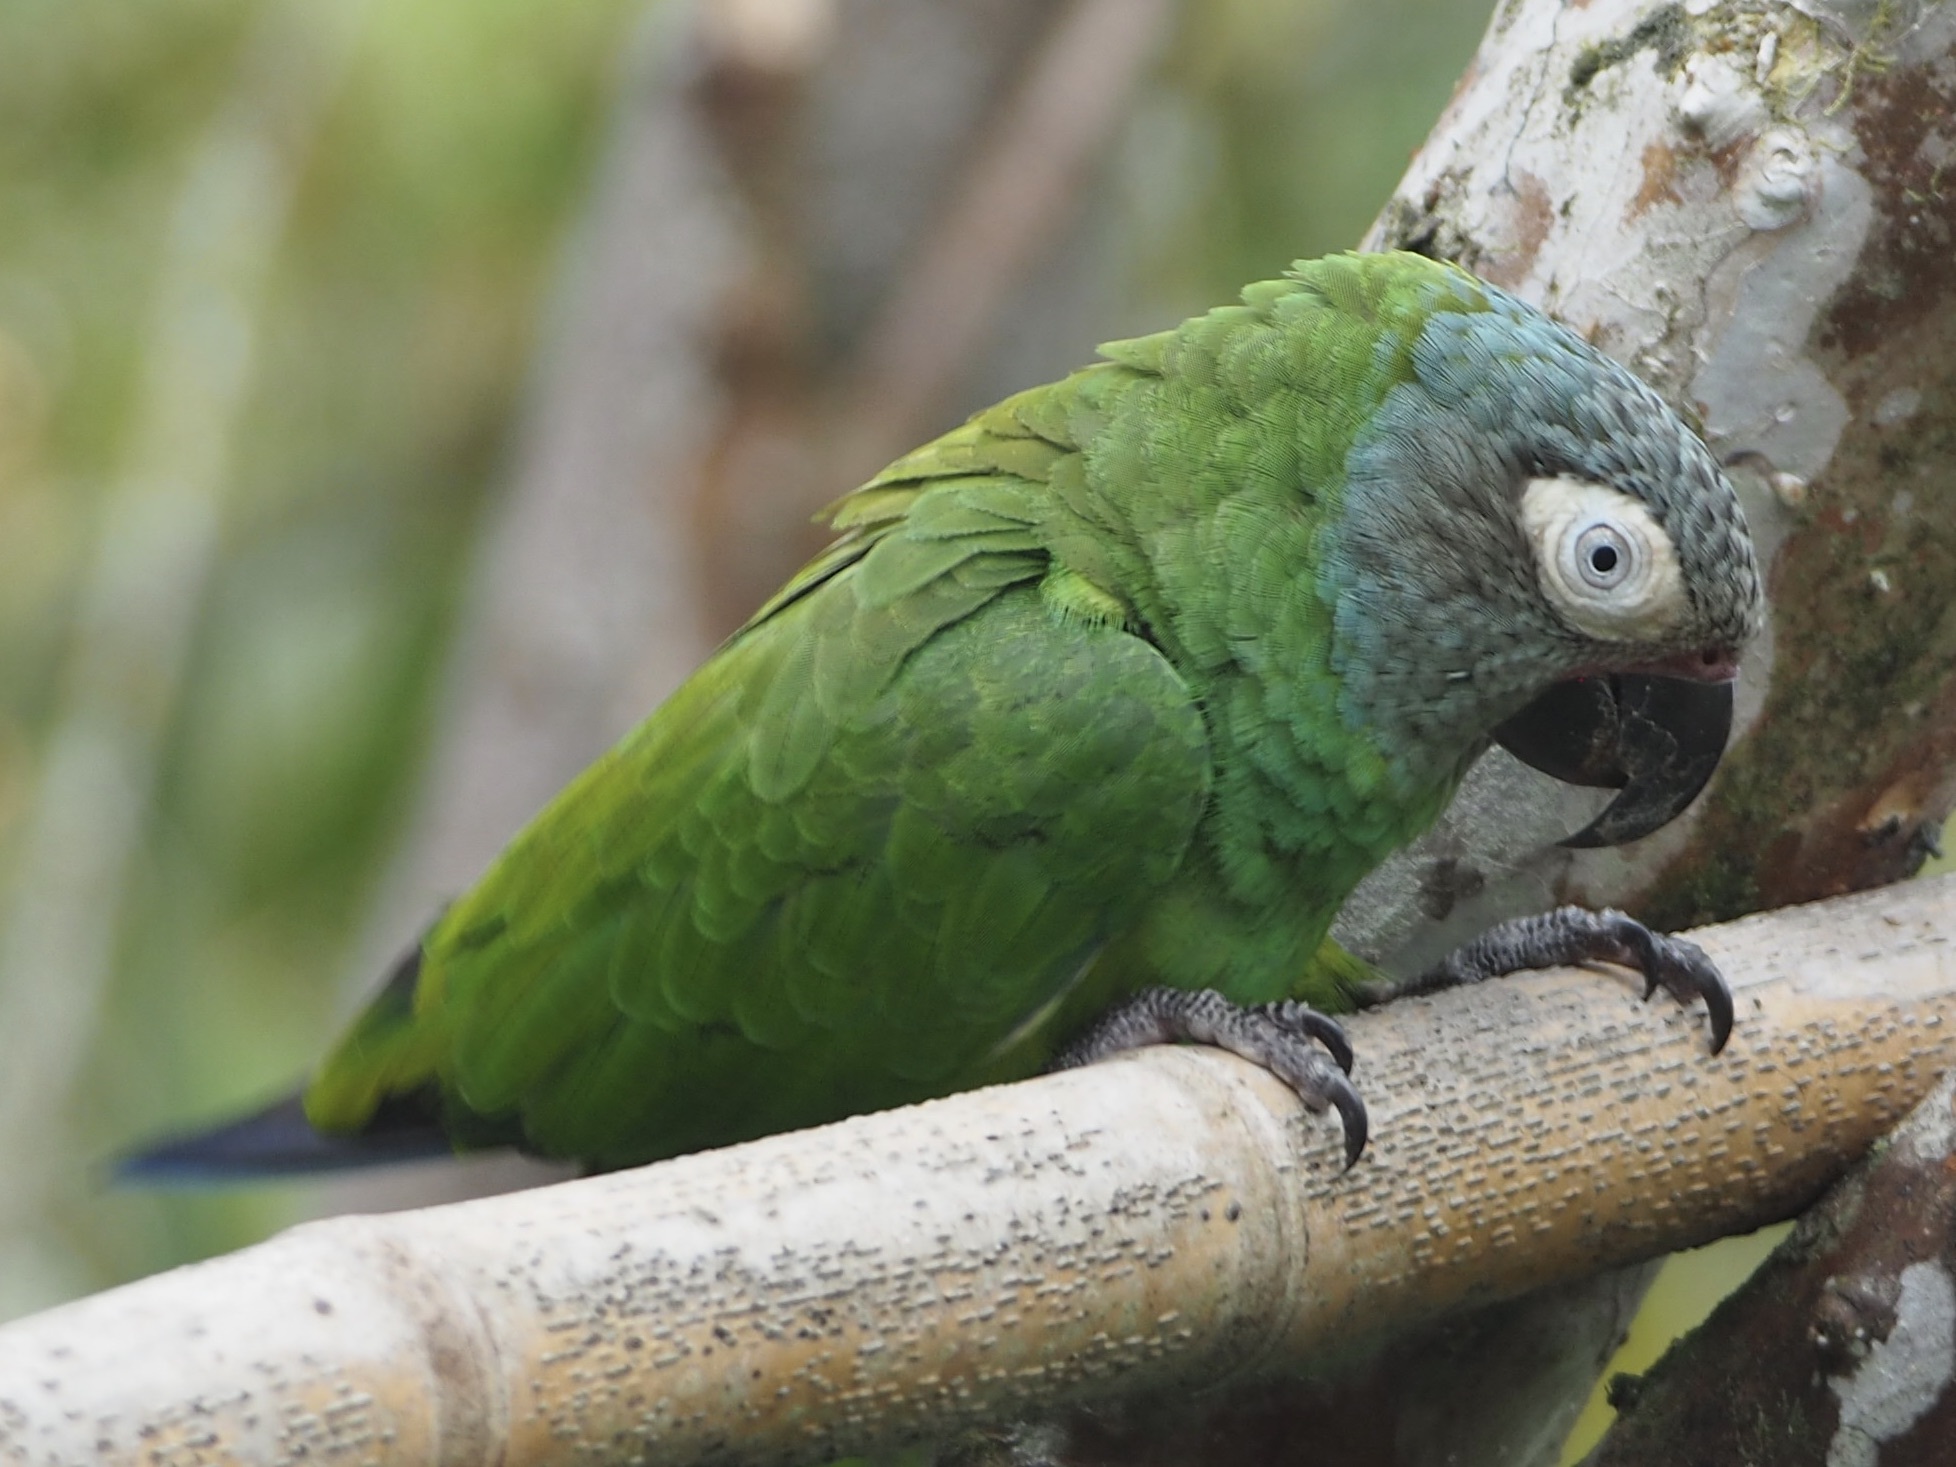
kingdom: Animalia
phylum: Chordata
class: Aves
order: Psittaciformes
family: Psittacidae
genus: Aratinga
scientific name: Aratinga weddellii
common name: Dusky-headed parakeet
